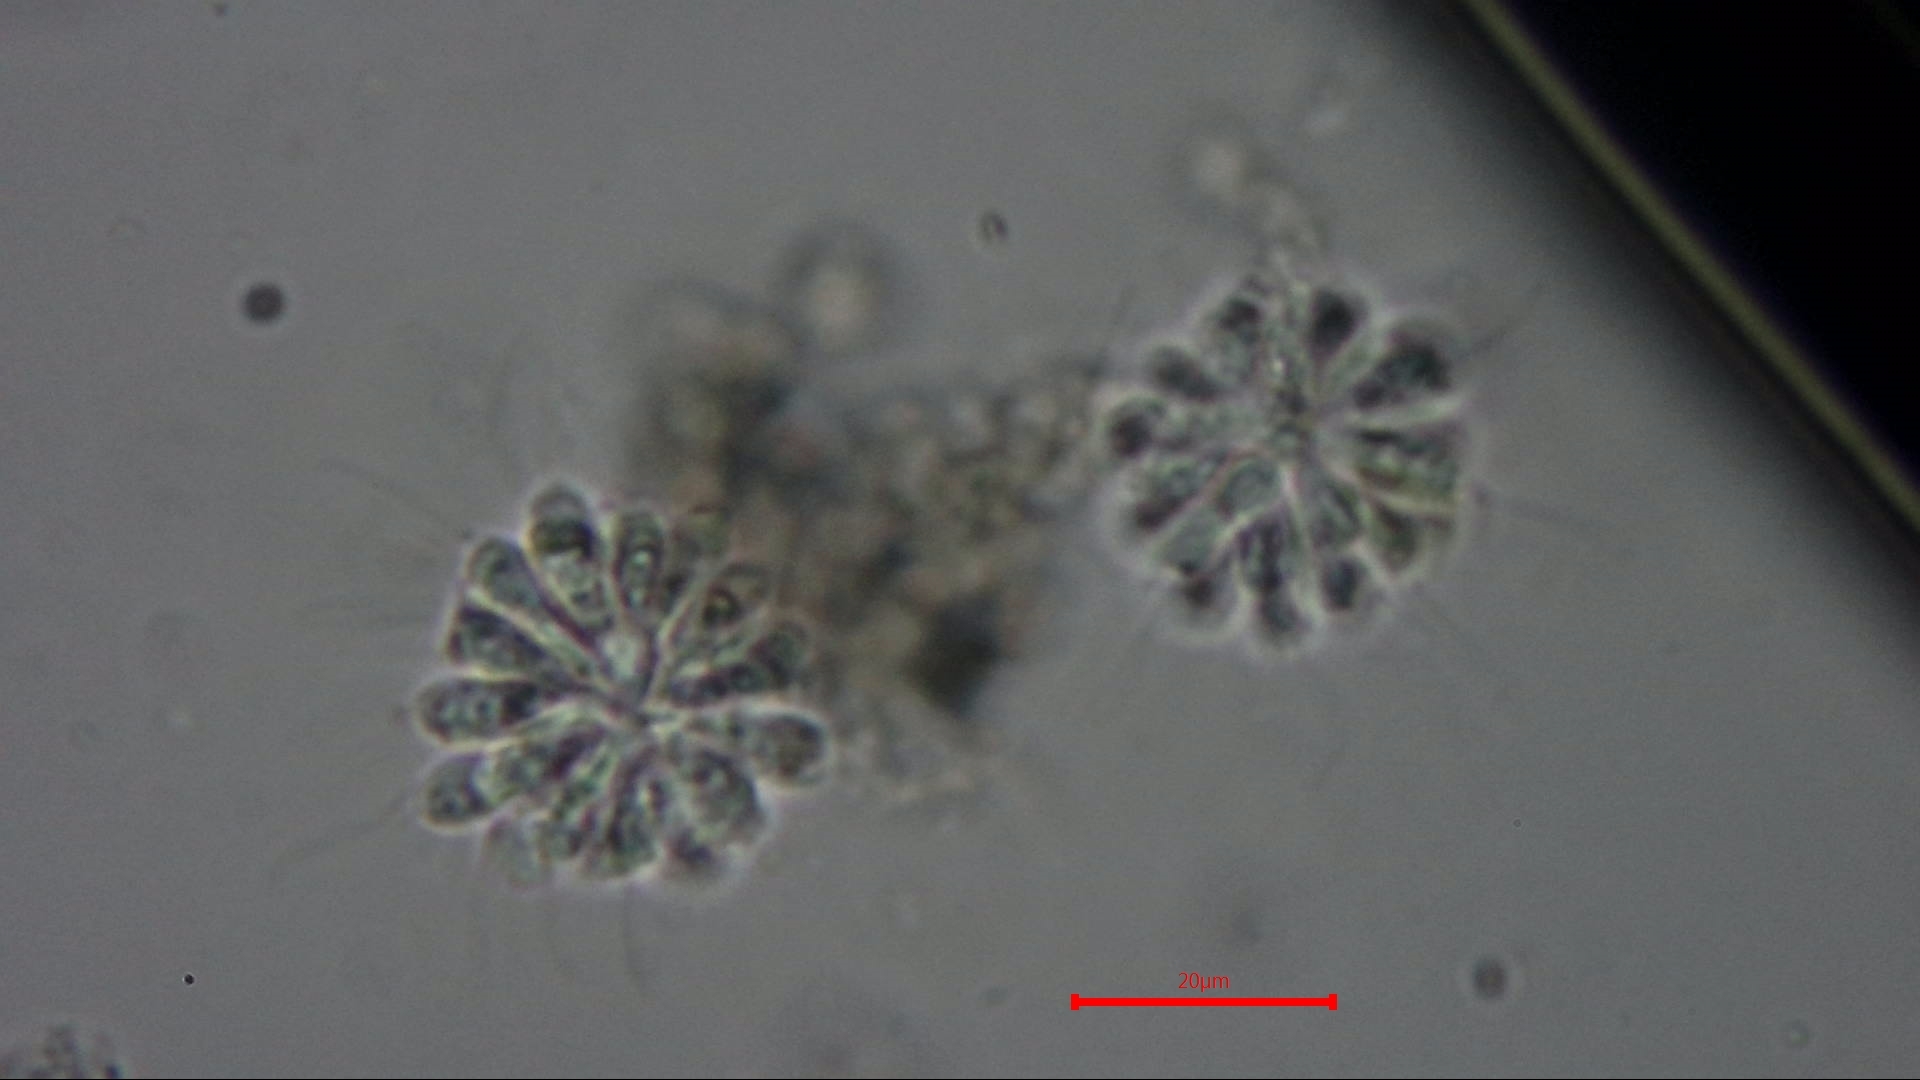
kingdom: Chromista
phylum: Ochrophyta
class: Chrysophyceae
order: Chromulinales
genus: Anthophysa
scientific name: Anthophysa vegetans
